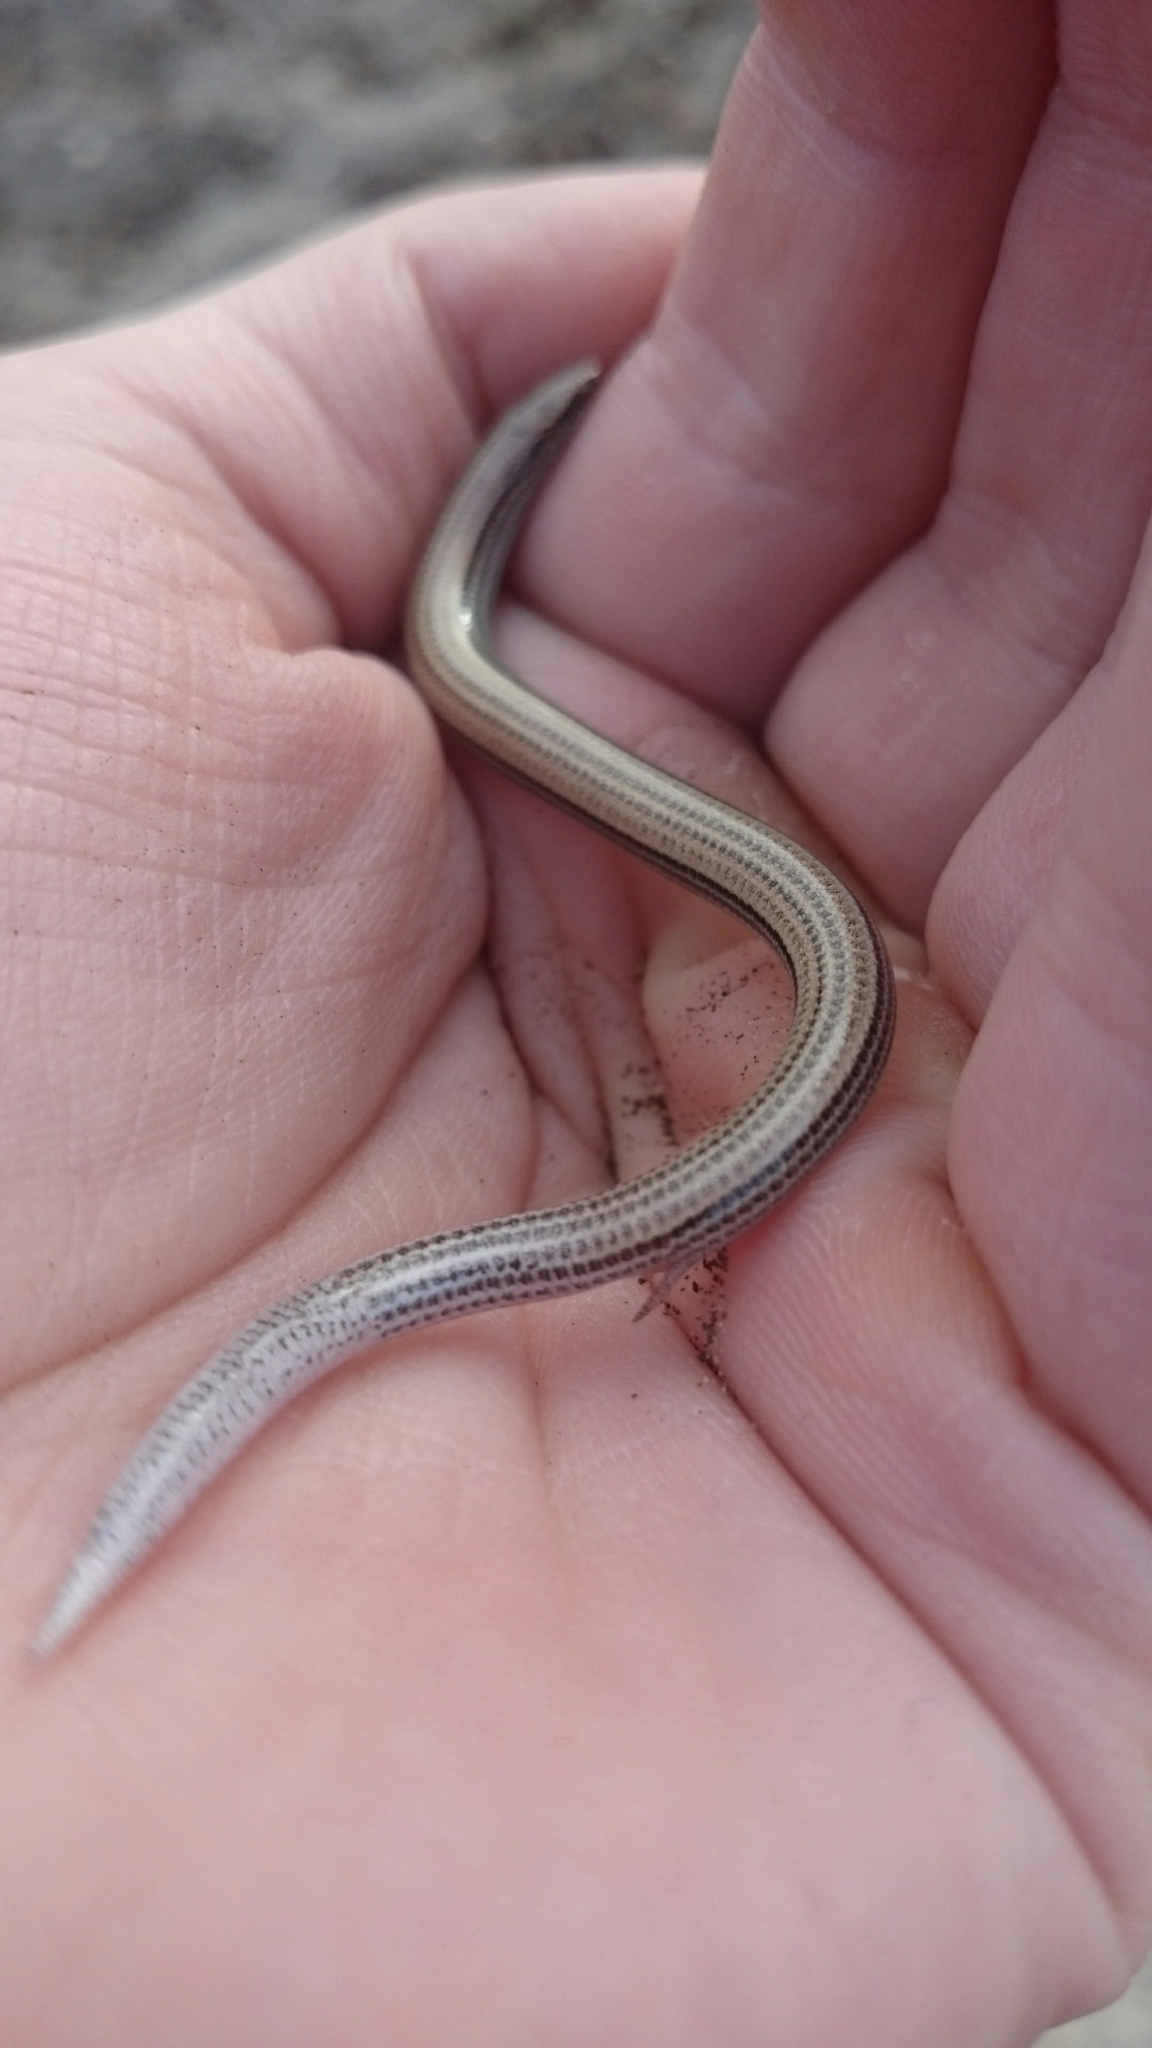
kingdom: Animalia
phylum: Chordata
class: Squamata
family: Scincidae
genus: Scelotes
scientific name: Scelotes gronovii
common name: Gronovi's dwarf burrowing skink
